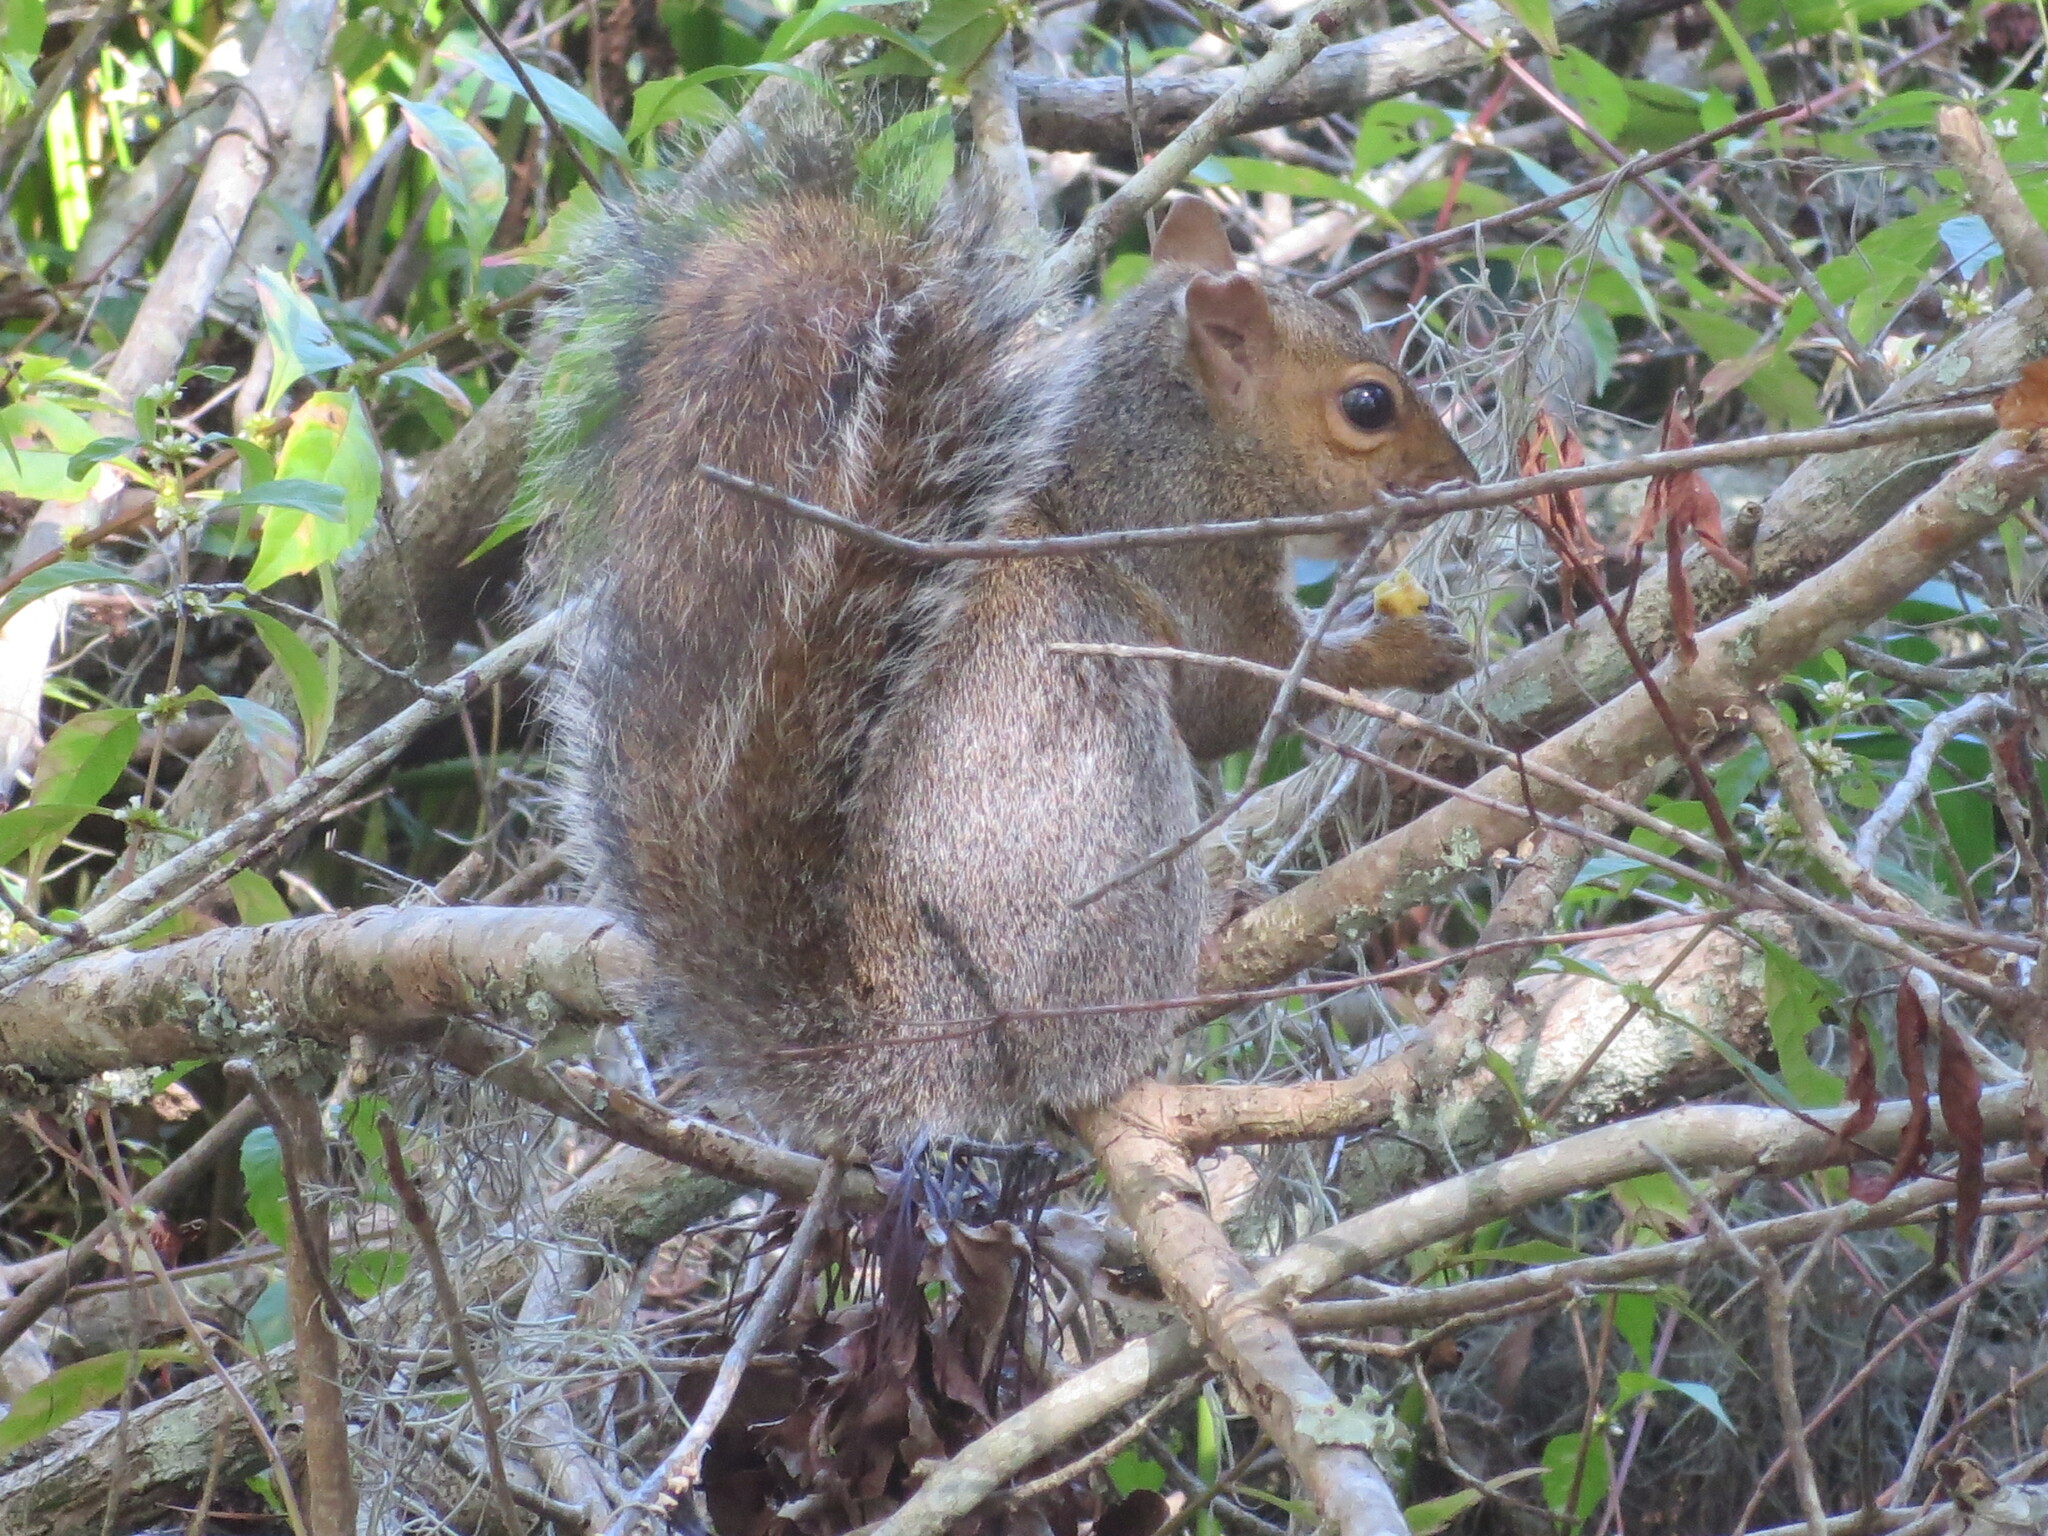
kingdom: Animalia
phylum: Chordata
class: Mammalia
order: Rodentia
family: Sciuridae
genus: Sciurus
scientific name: Sciurus carolinensis
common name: Eastern gray squirrel
